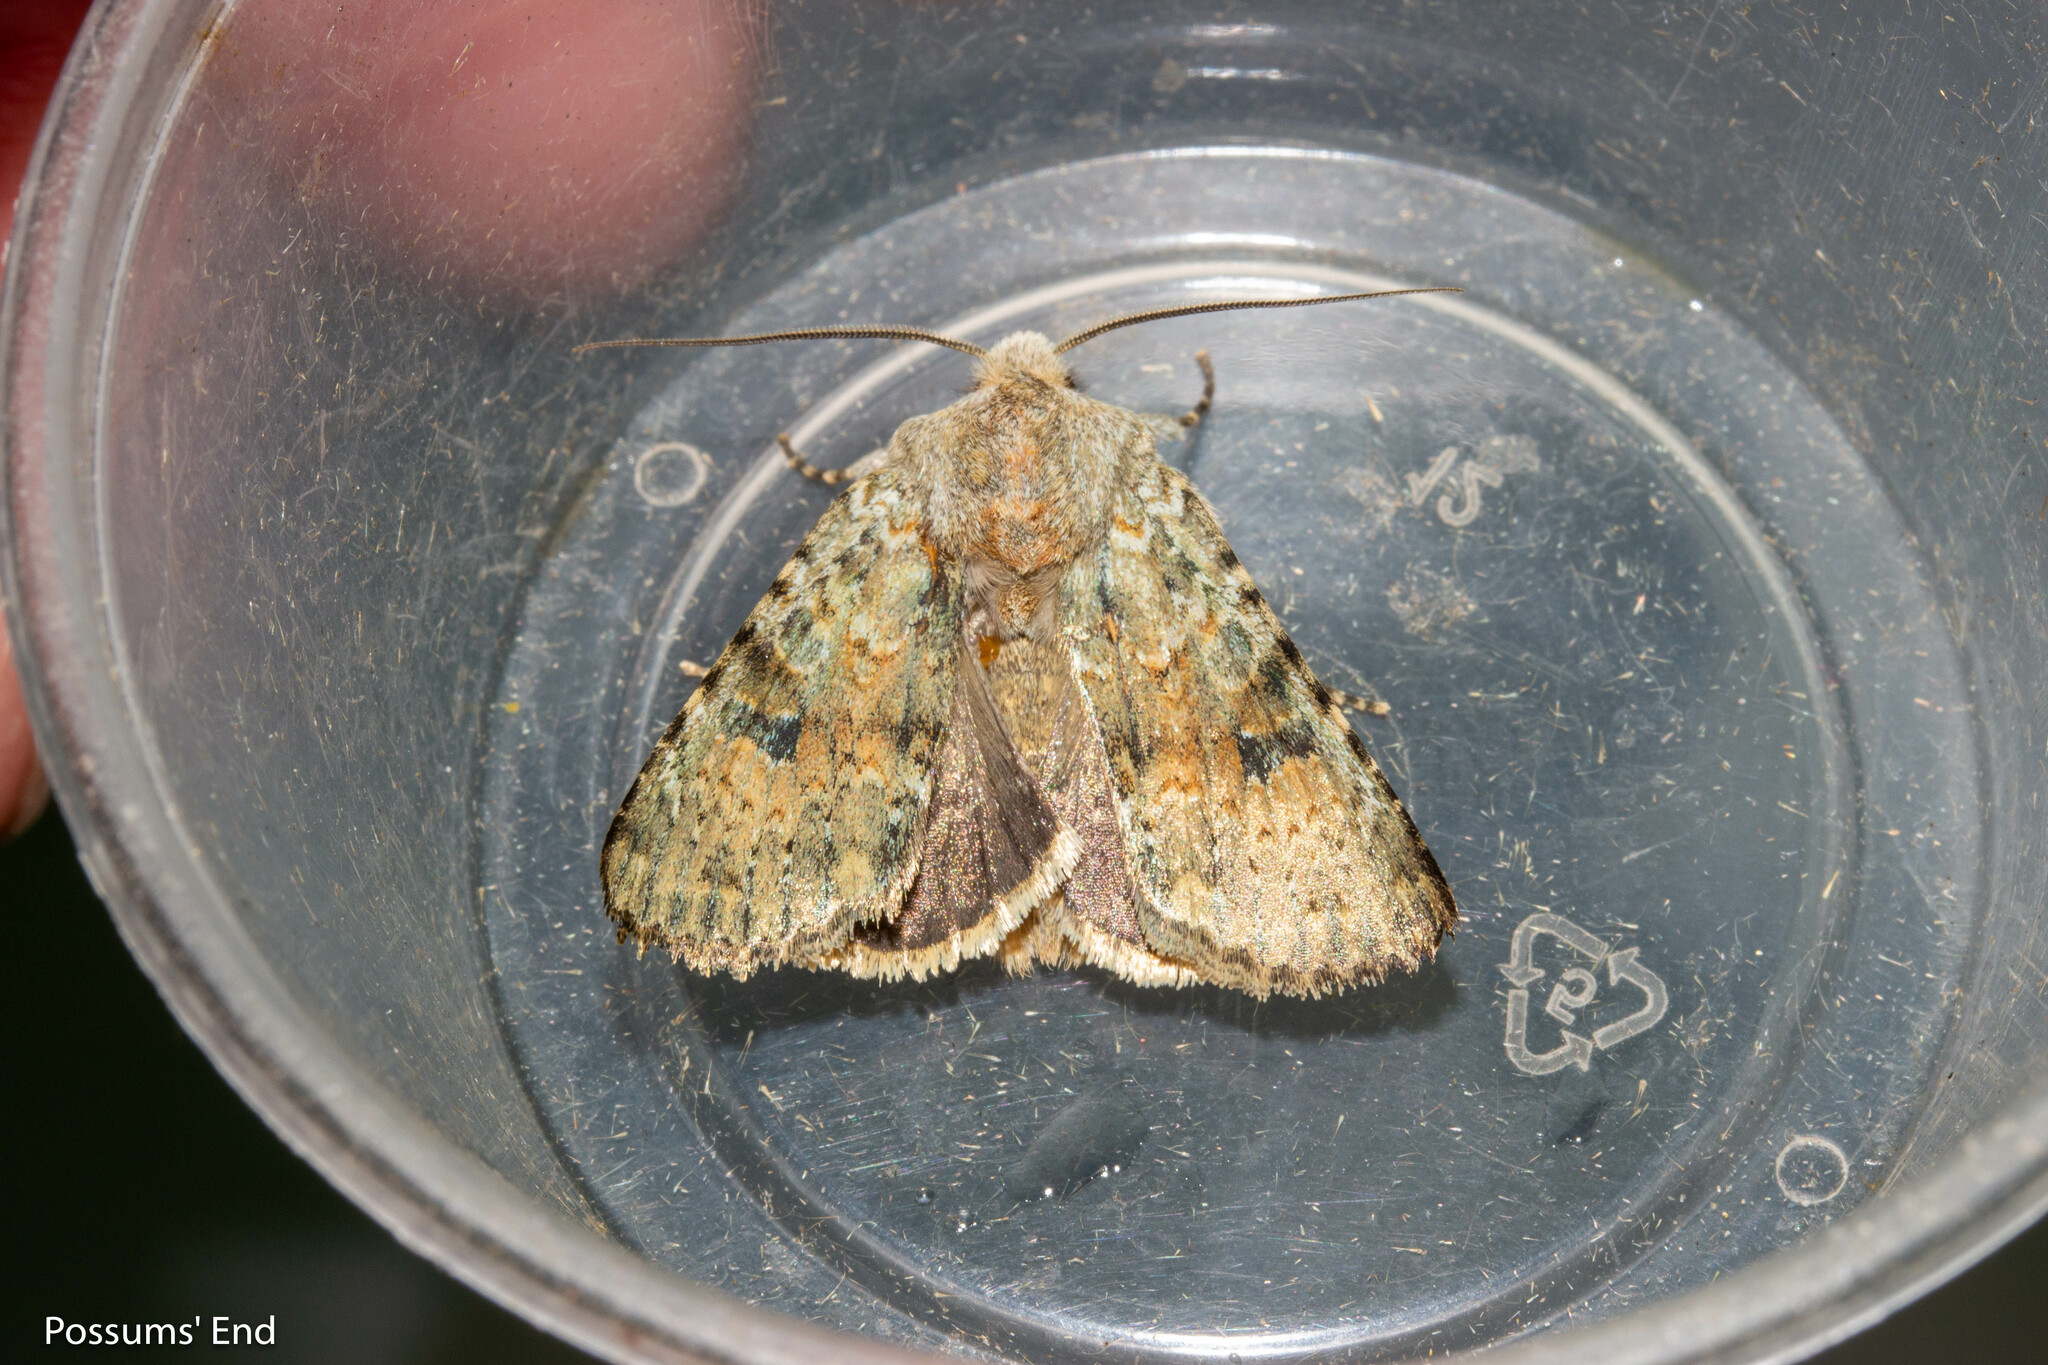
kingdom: Animalia
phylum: Arthropoda
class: Insecta
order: Lepidoptera
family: Noctuidae
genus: Ichneutica
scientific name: Ichneutica cuneata
